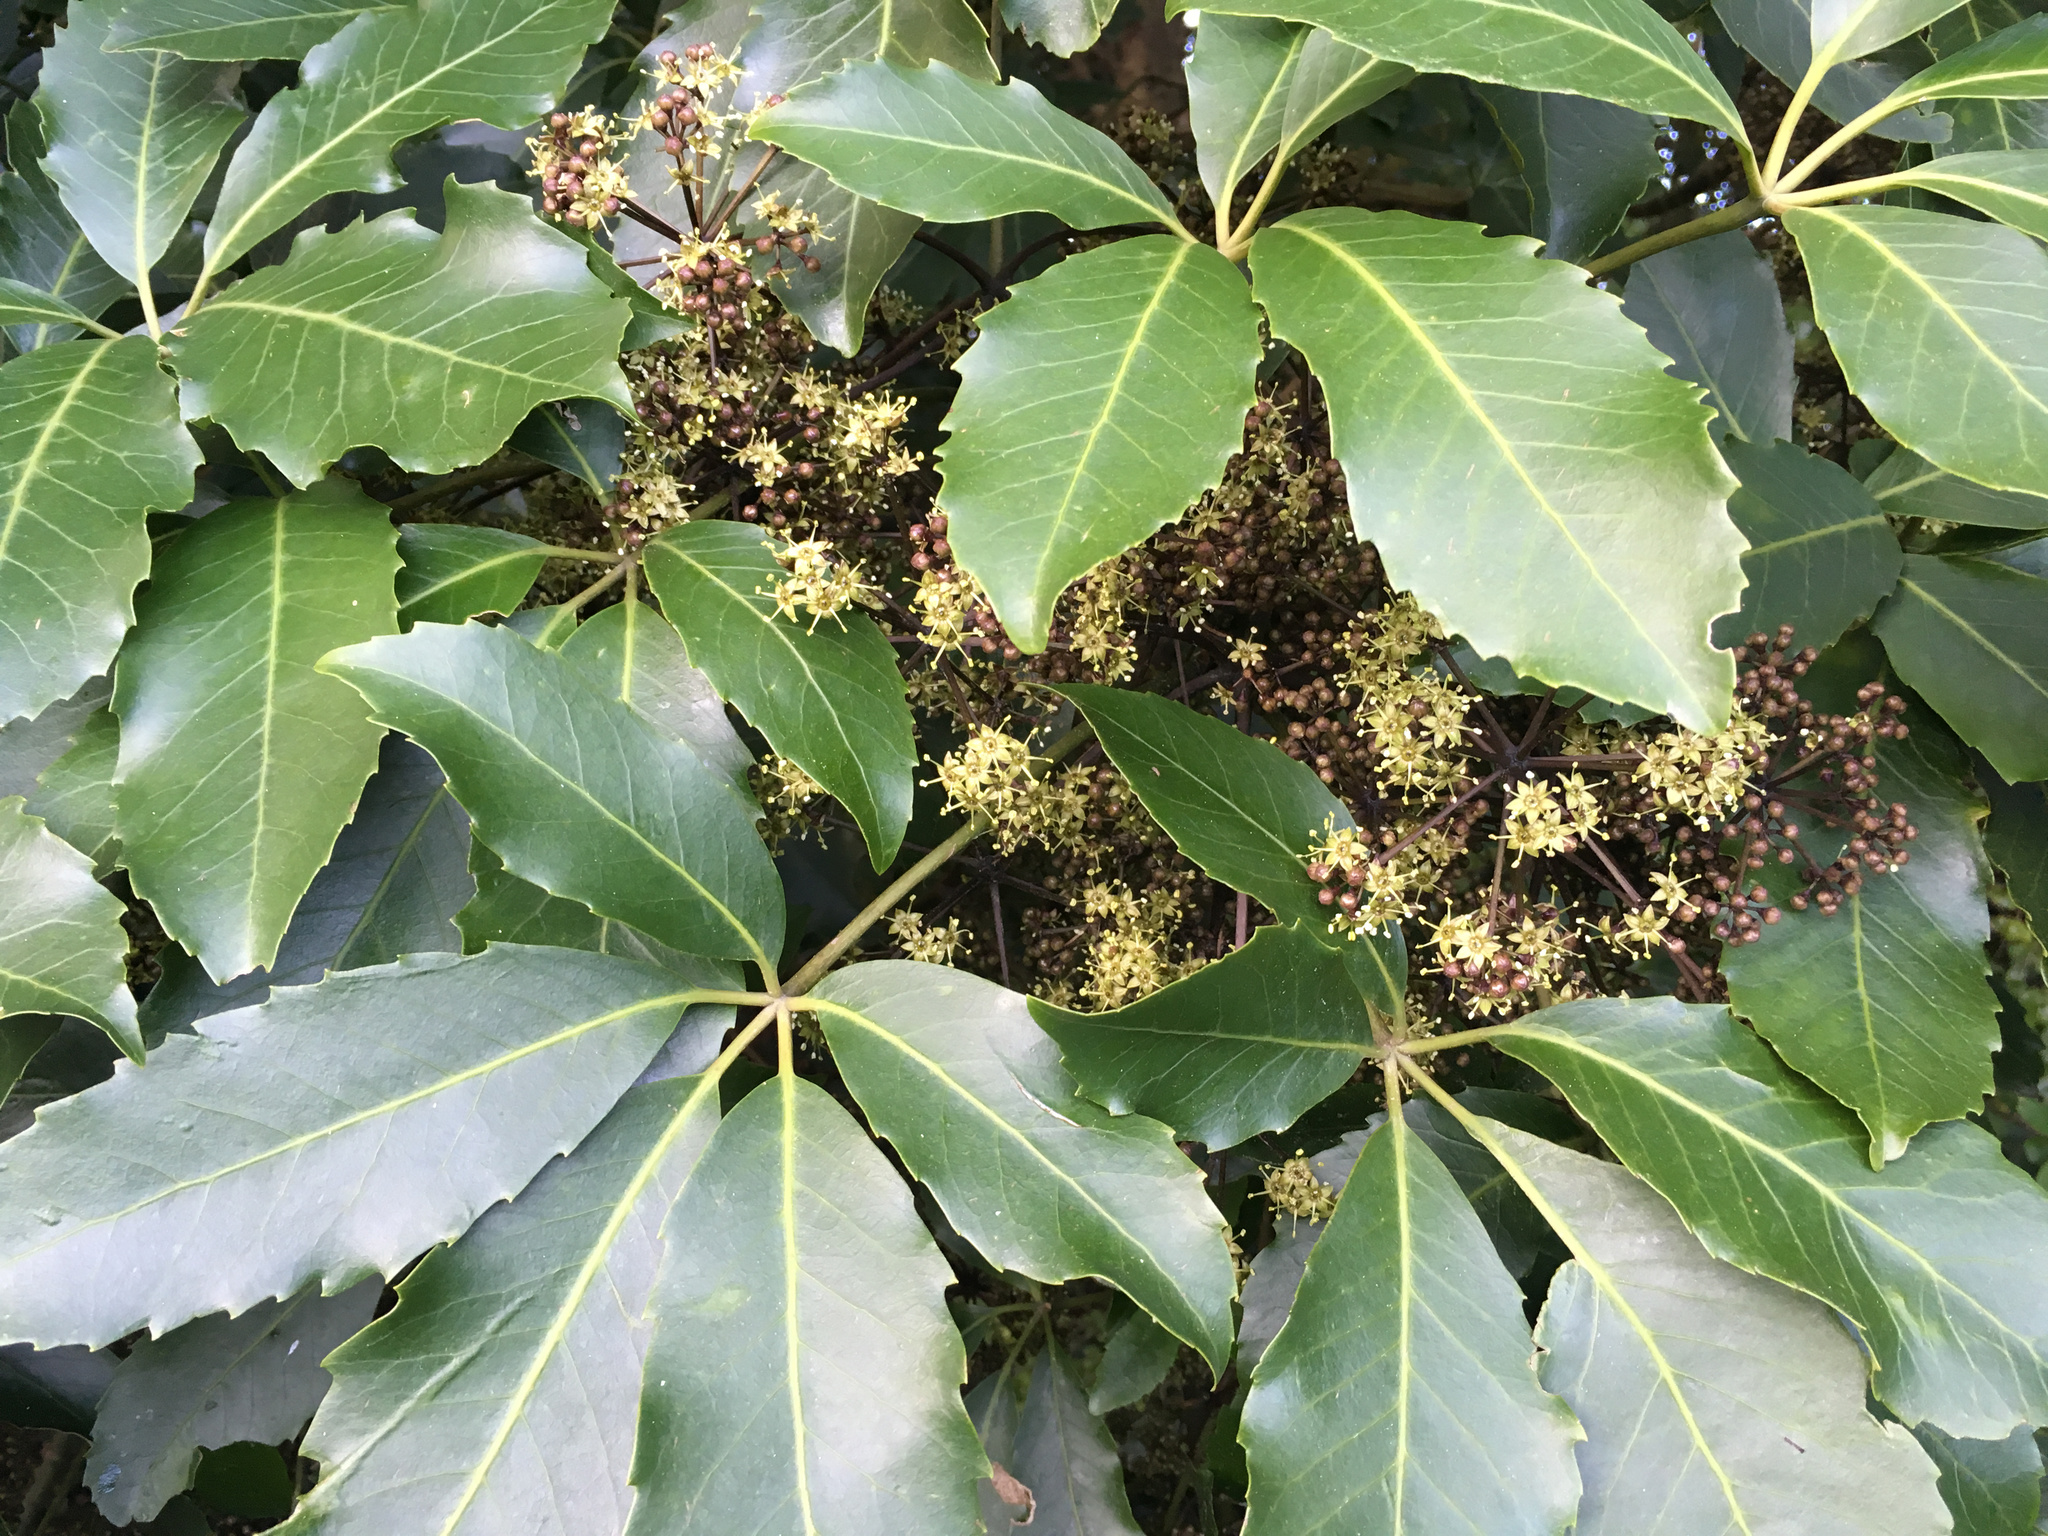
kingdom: Plantae
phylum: Tracheophyta
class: Magnoliopsida
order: Apiales
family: Araliaceae
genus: Neopanax
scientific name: Neopanax arboreus
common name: Five-fingers
